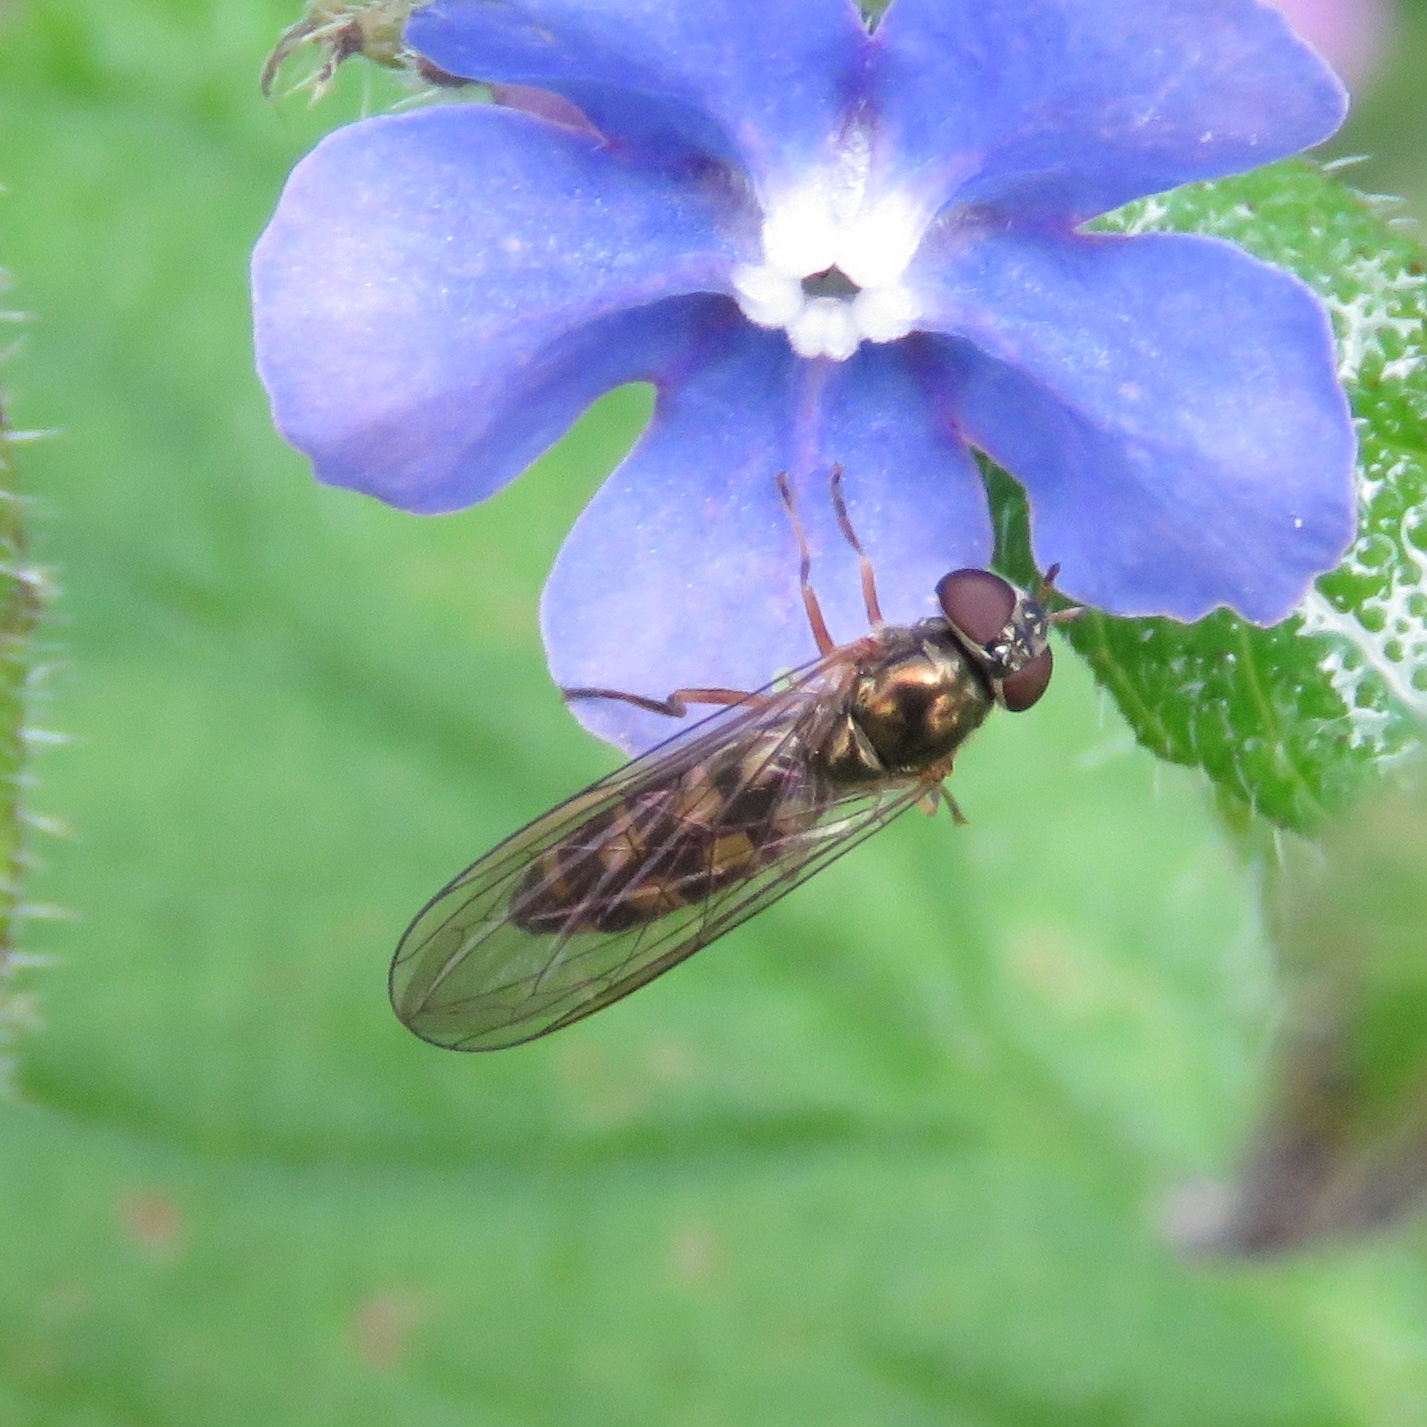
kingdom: Animalia
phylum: Arthropoda
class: Insecta
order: Diptera
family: Syrphidae
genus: Melanostoma
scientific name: Melanostoma scalare
